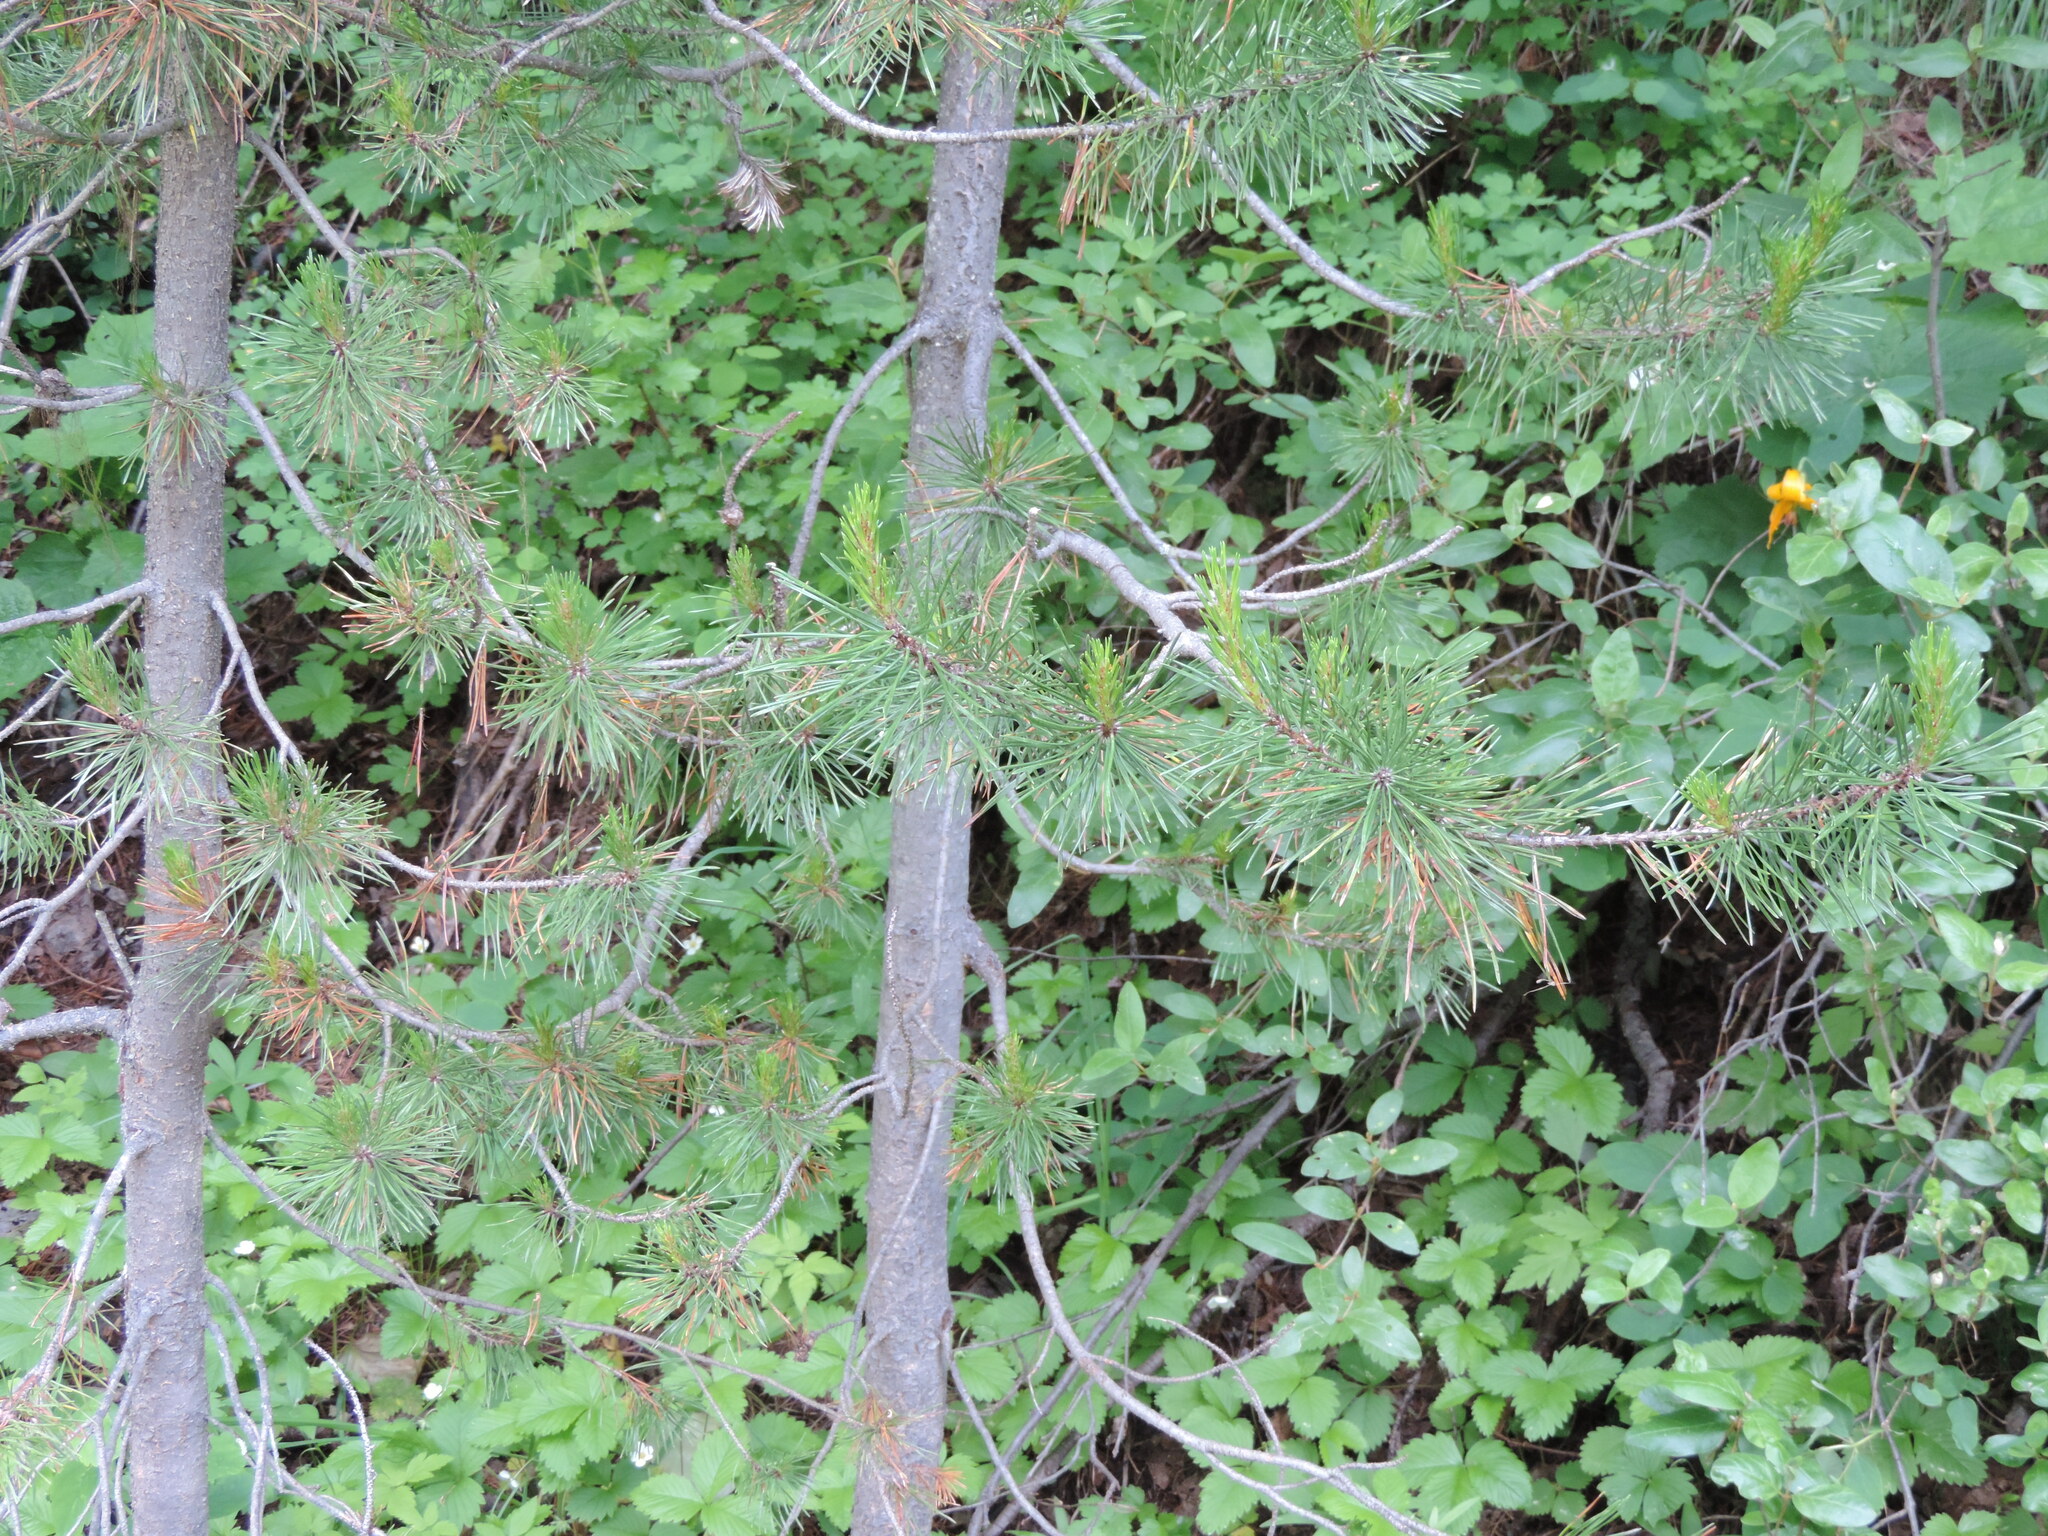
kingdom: Plantae
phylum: Tracheophyta
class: Pinopsida
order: Pinales
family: Pinaceae
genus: Pinus
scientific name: Pinus contorta
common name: Lodgepole pine
